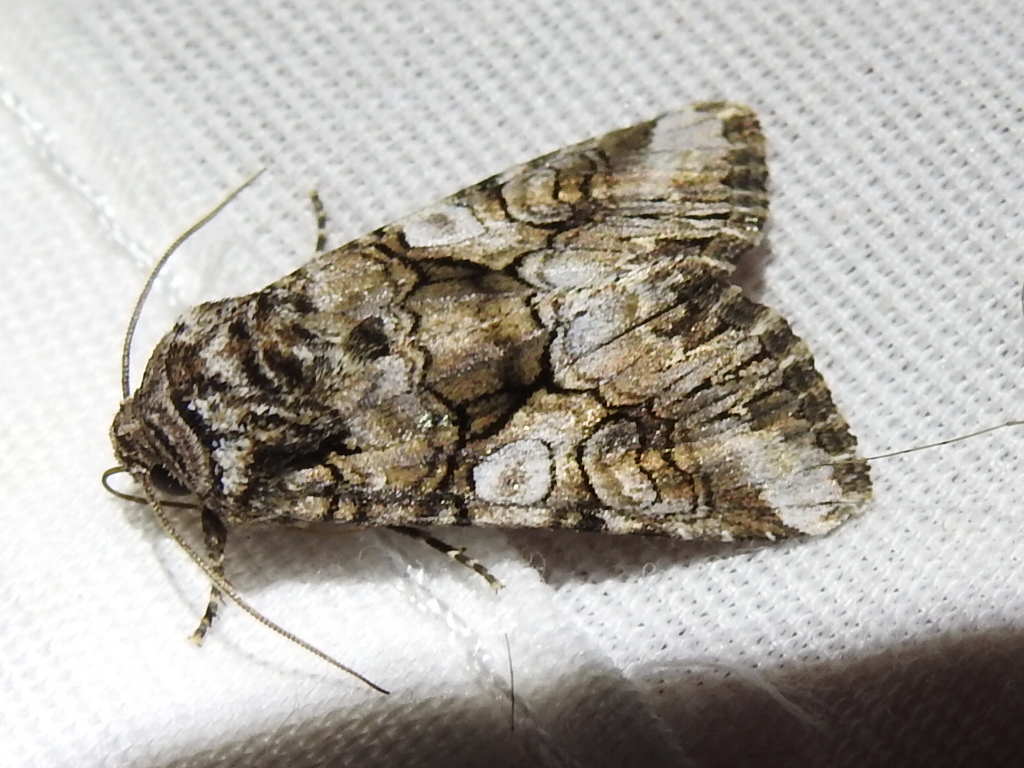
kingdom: Animalia
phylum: Arthropoda
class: Insecta
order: Lepidoptera
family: Noctuidae
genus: Hadena
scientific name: Hadena capsularis
